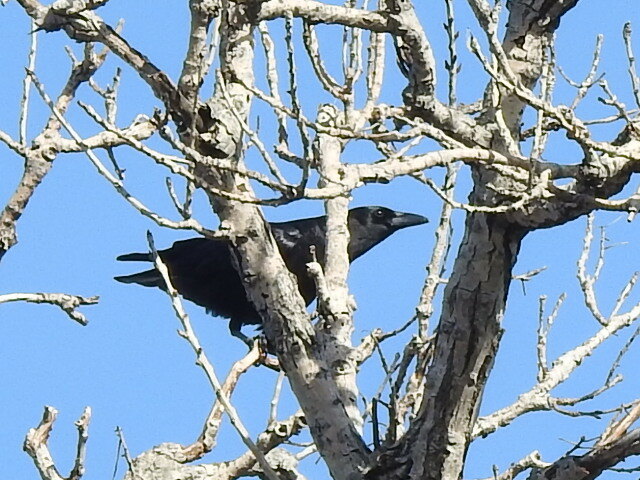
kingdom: Animalia
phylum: Chordata
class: Aves
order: Passeriformes
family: Corvidae
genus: Corvus
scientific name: Corvus brachyrhynchos
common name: American crow
